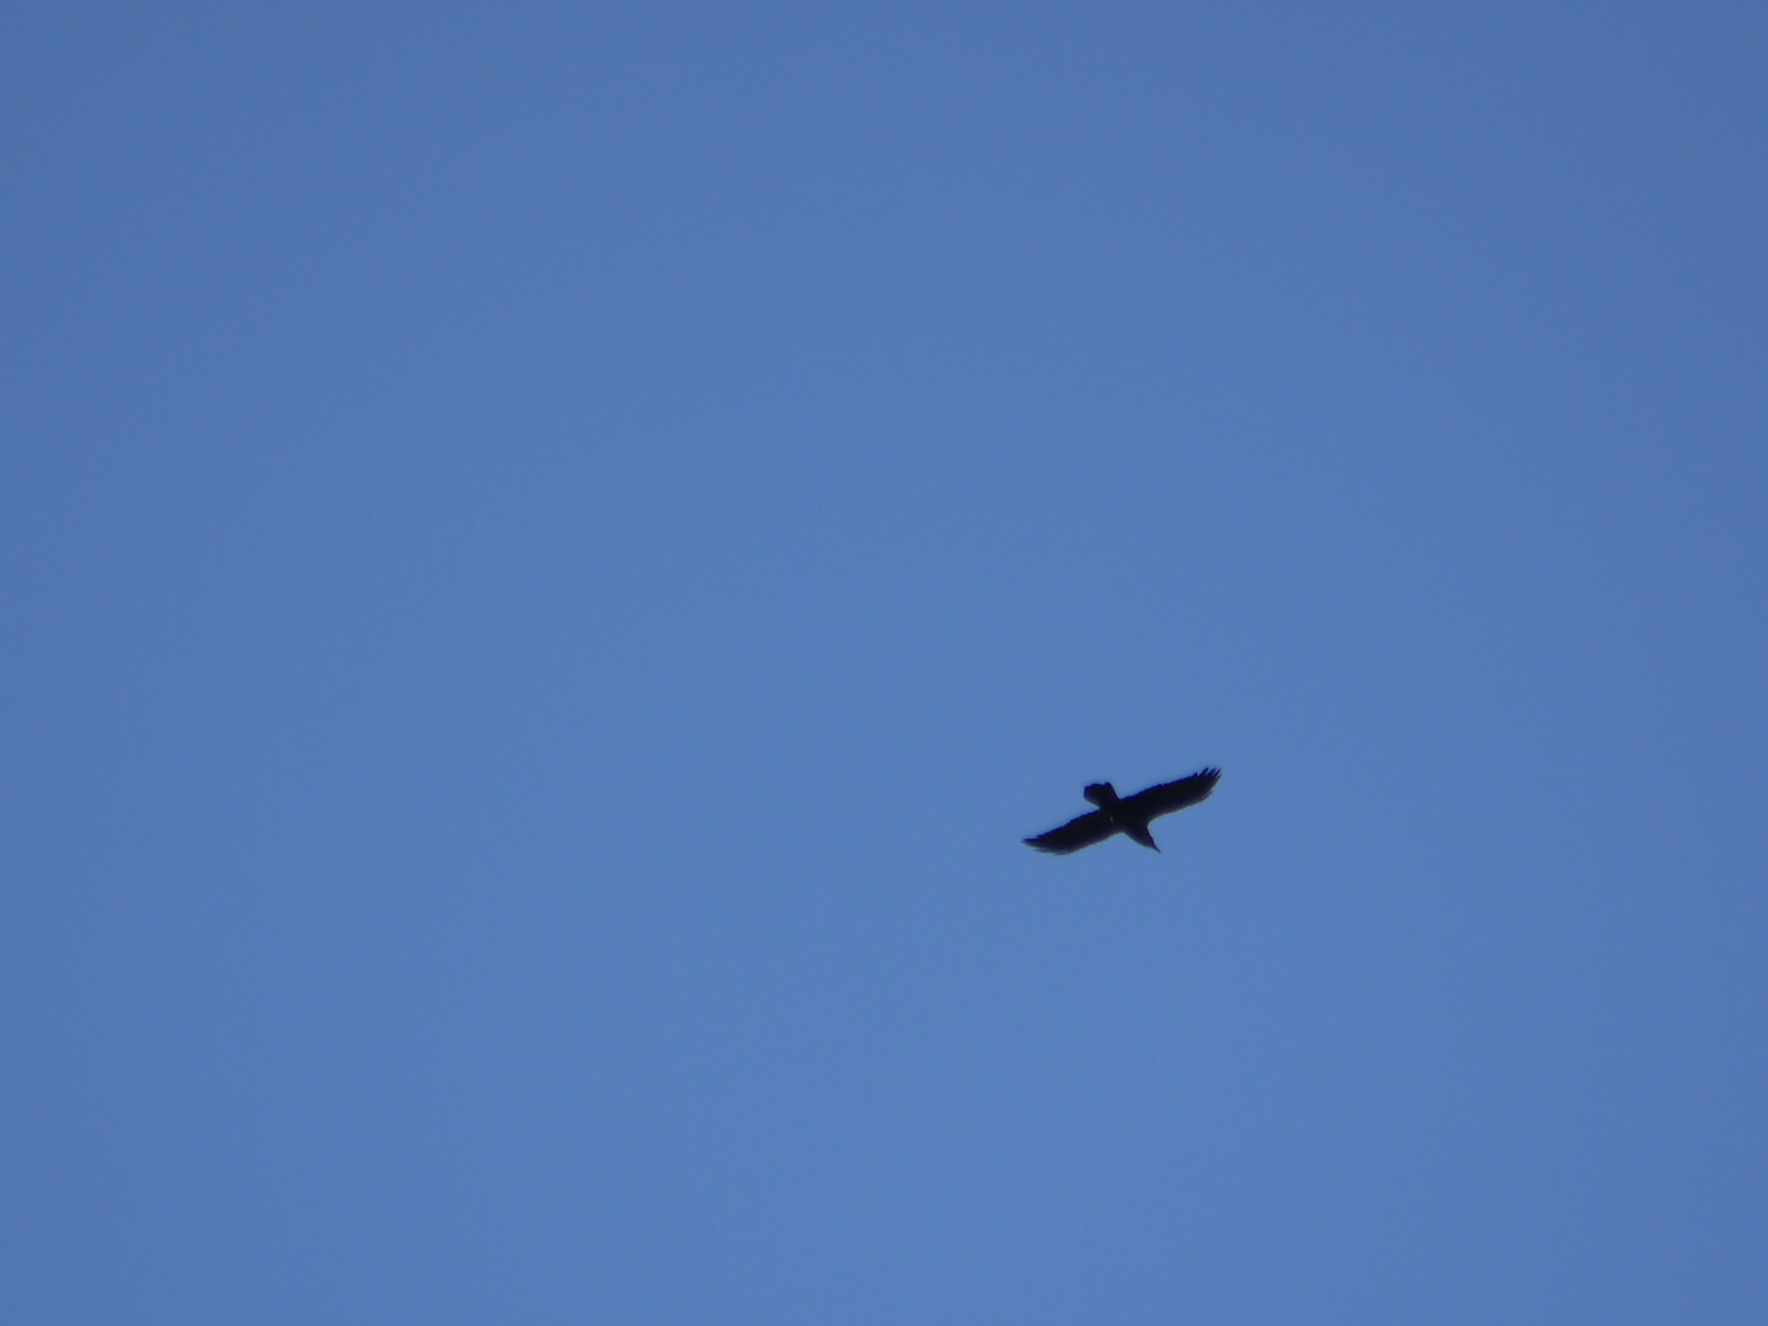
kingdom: Animalia
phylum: Chordata
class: Aves
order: Passeriformes
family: Corvidae
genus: Corvus
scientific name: Corvus corax
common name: Common raven
